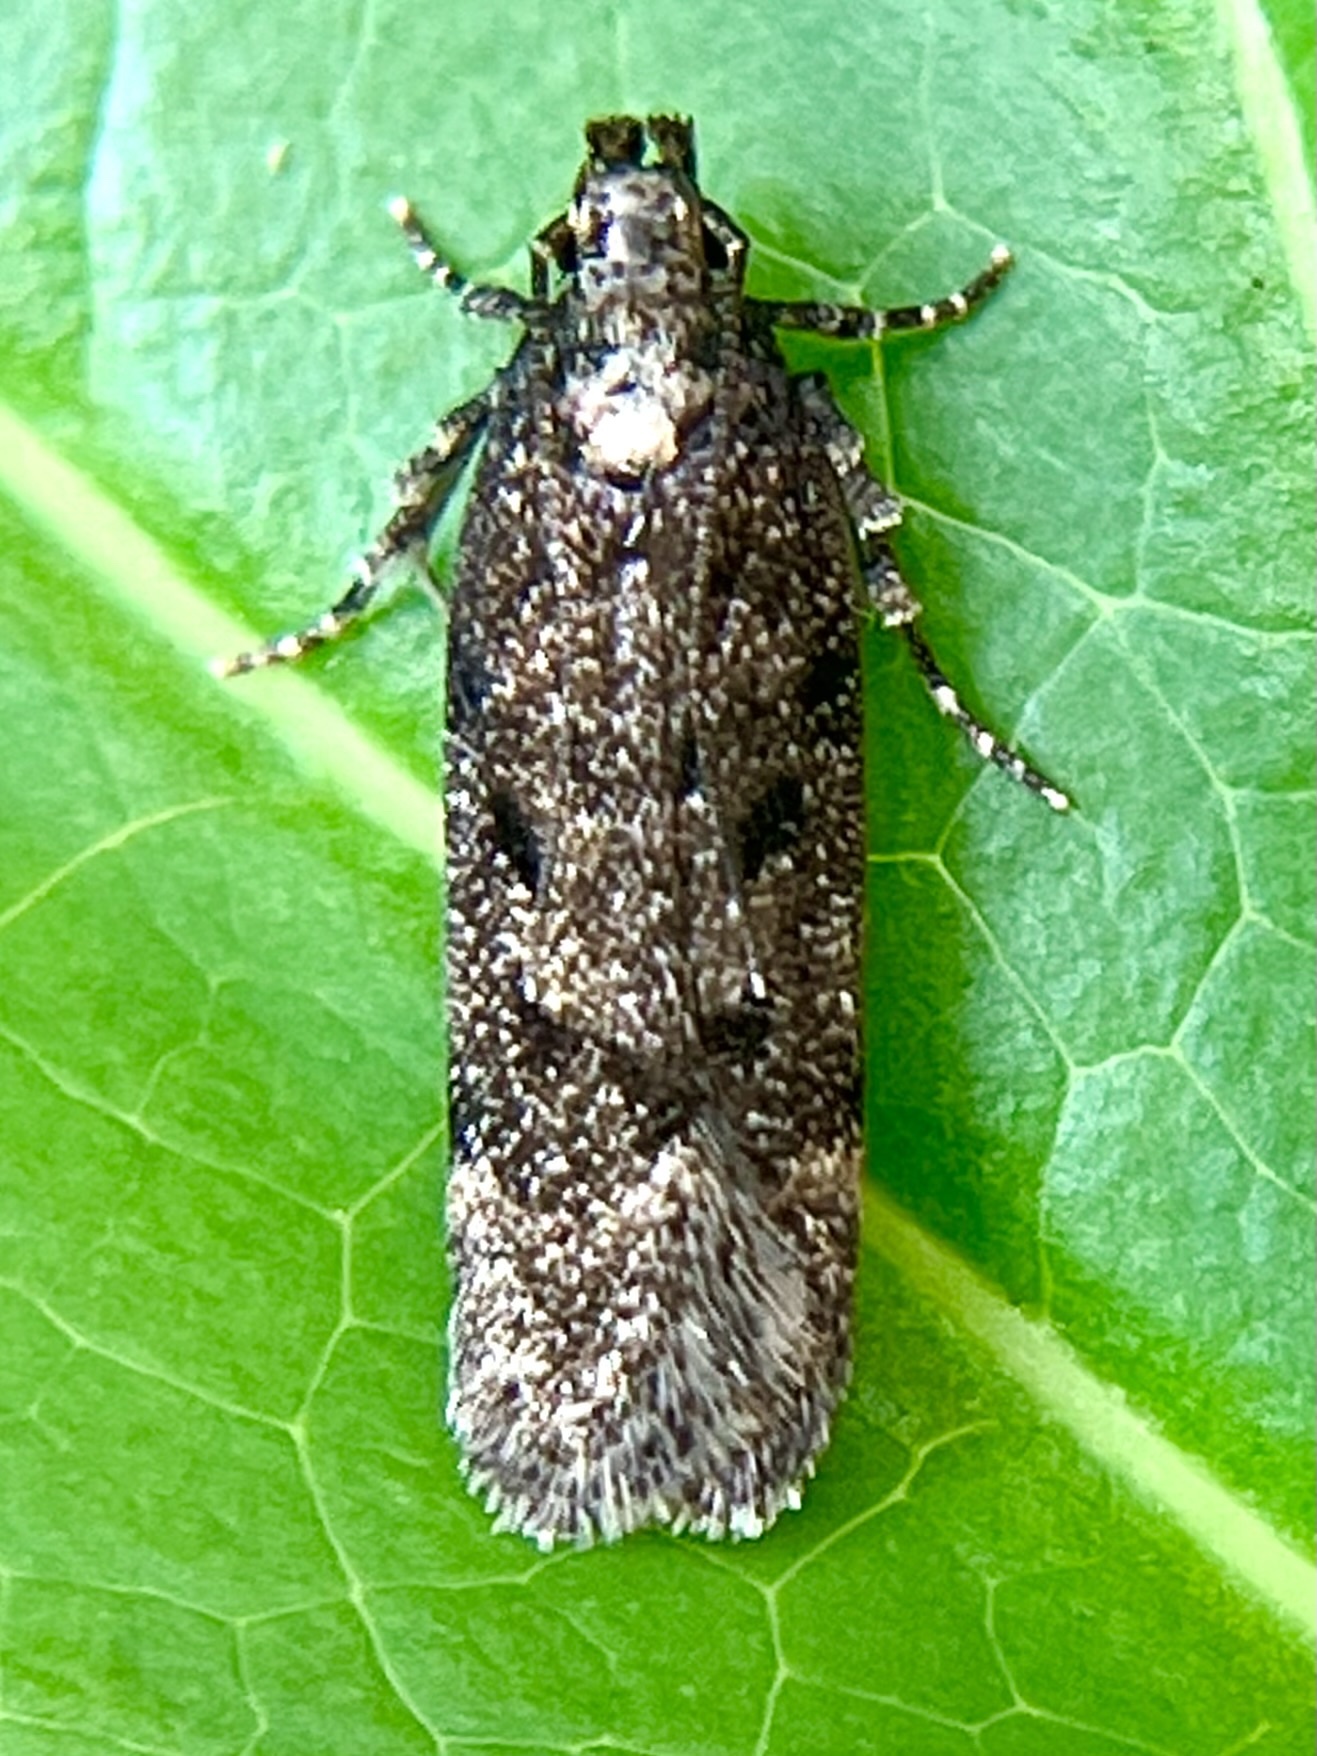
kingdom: Animalia
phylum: Arthropoda
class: Insecta
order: Lepidoptera
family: Gelechiidae
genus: Chionodes
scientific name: Chionodes thoraceochrella
